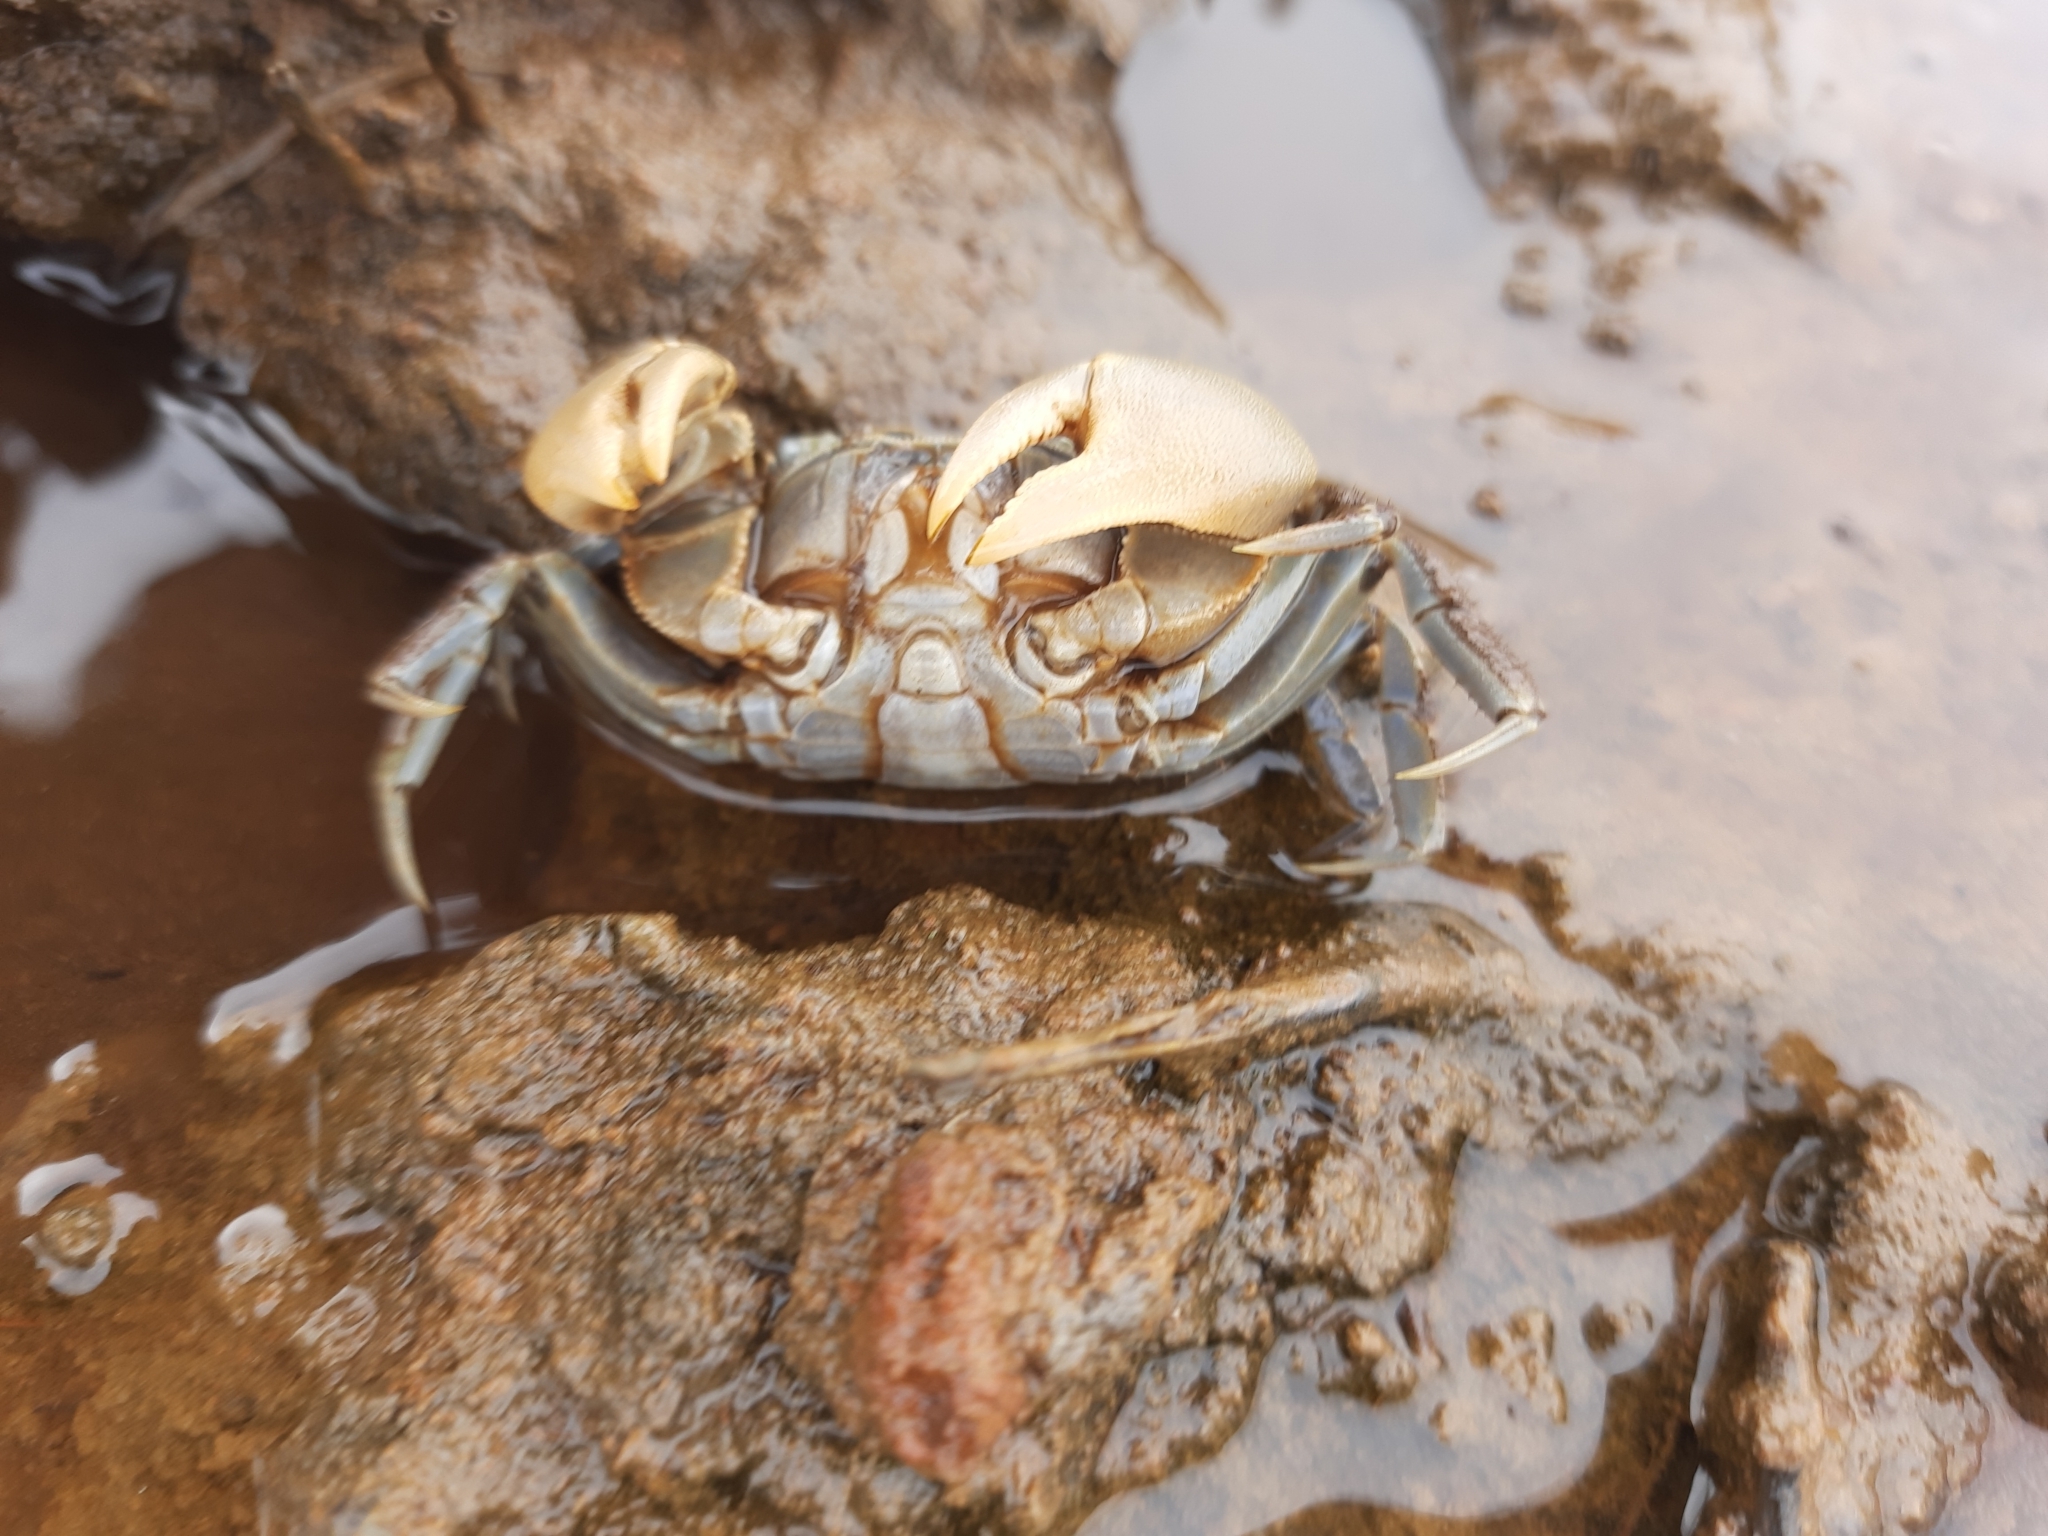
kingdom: Animalia
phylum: Arthropoda
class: Malacostraca
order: Decapoda
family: Varunidae
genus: Austrohelice
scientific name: Austrohelice crassa
